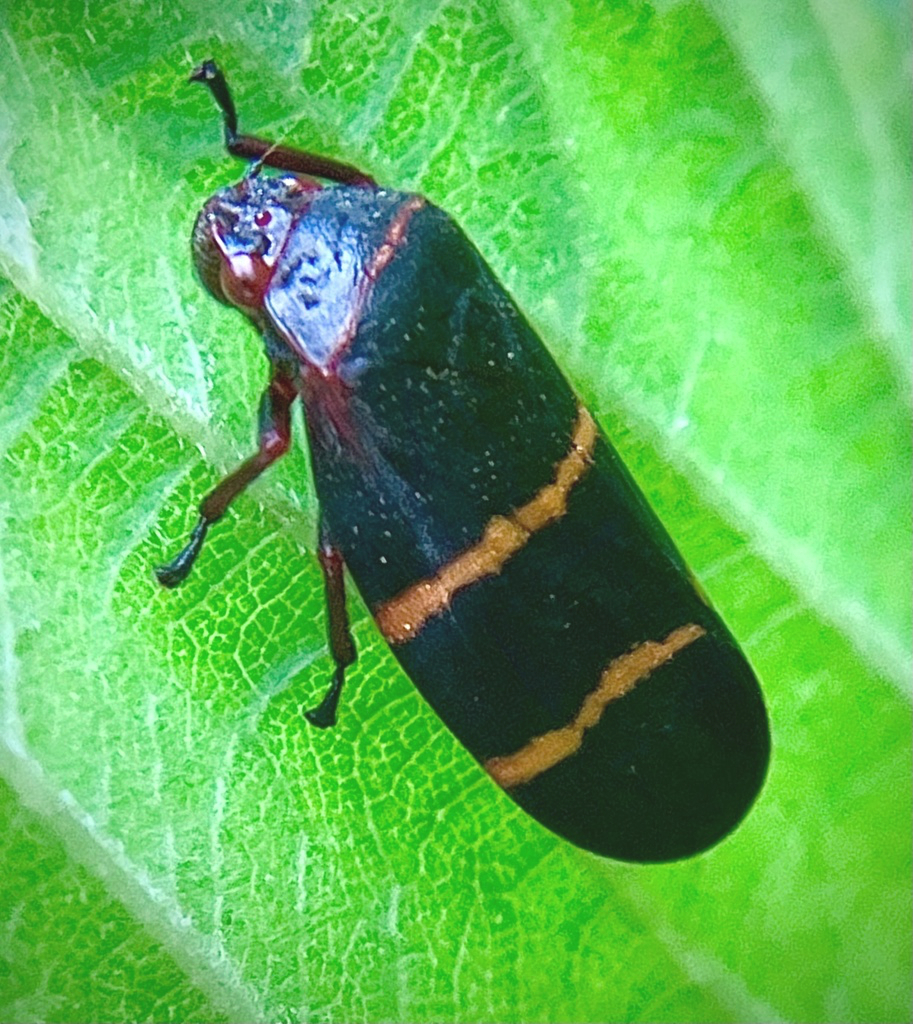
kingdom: Animalia
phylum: Arthropoda
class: Insecta
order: Hemiptera
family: Cercopidae
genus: Prosapia
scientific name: Prosapia bicincta
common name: Twolined spittlebug
